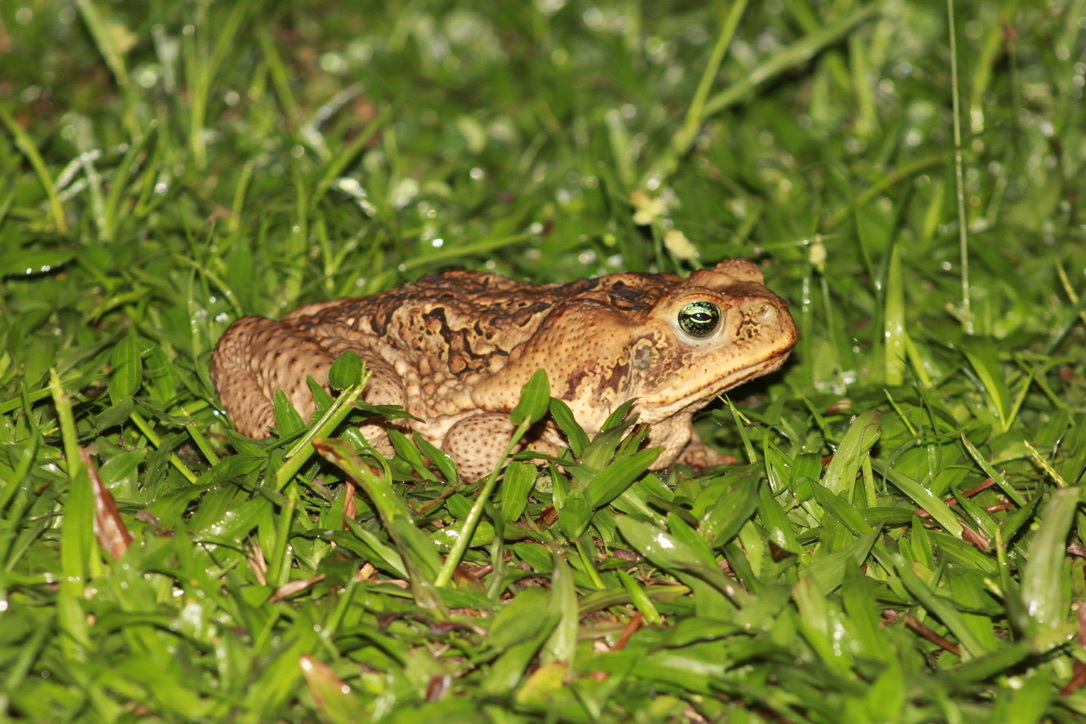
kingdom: Animalia
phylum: Chordata
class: Amphibia
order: Anura
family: Bufonidae
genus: Rhinella
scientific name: Rhinella marina
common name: Cane toad
